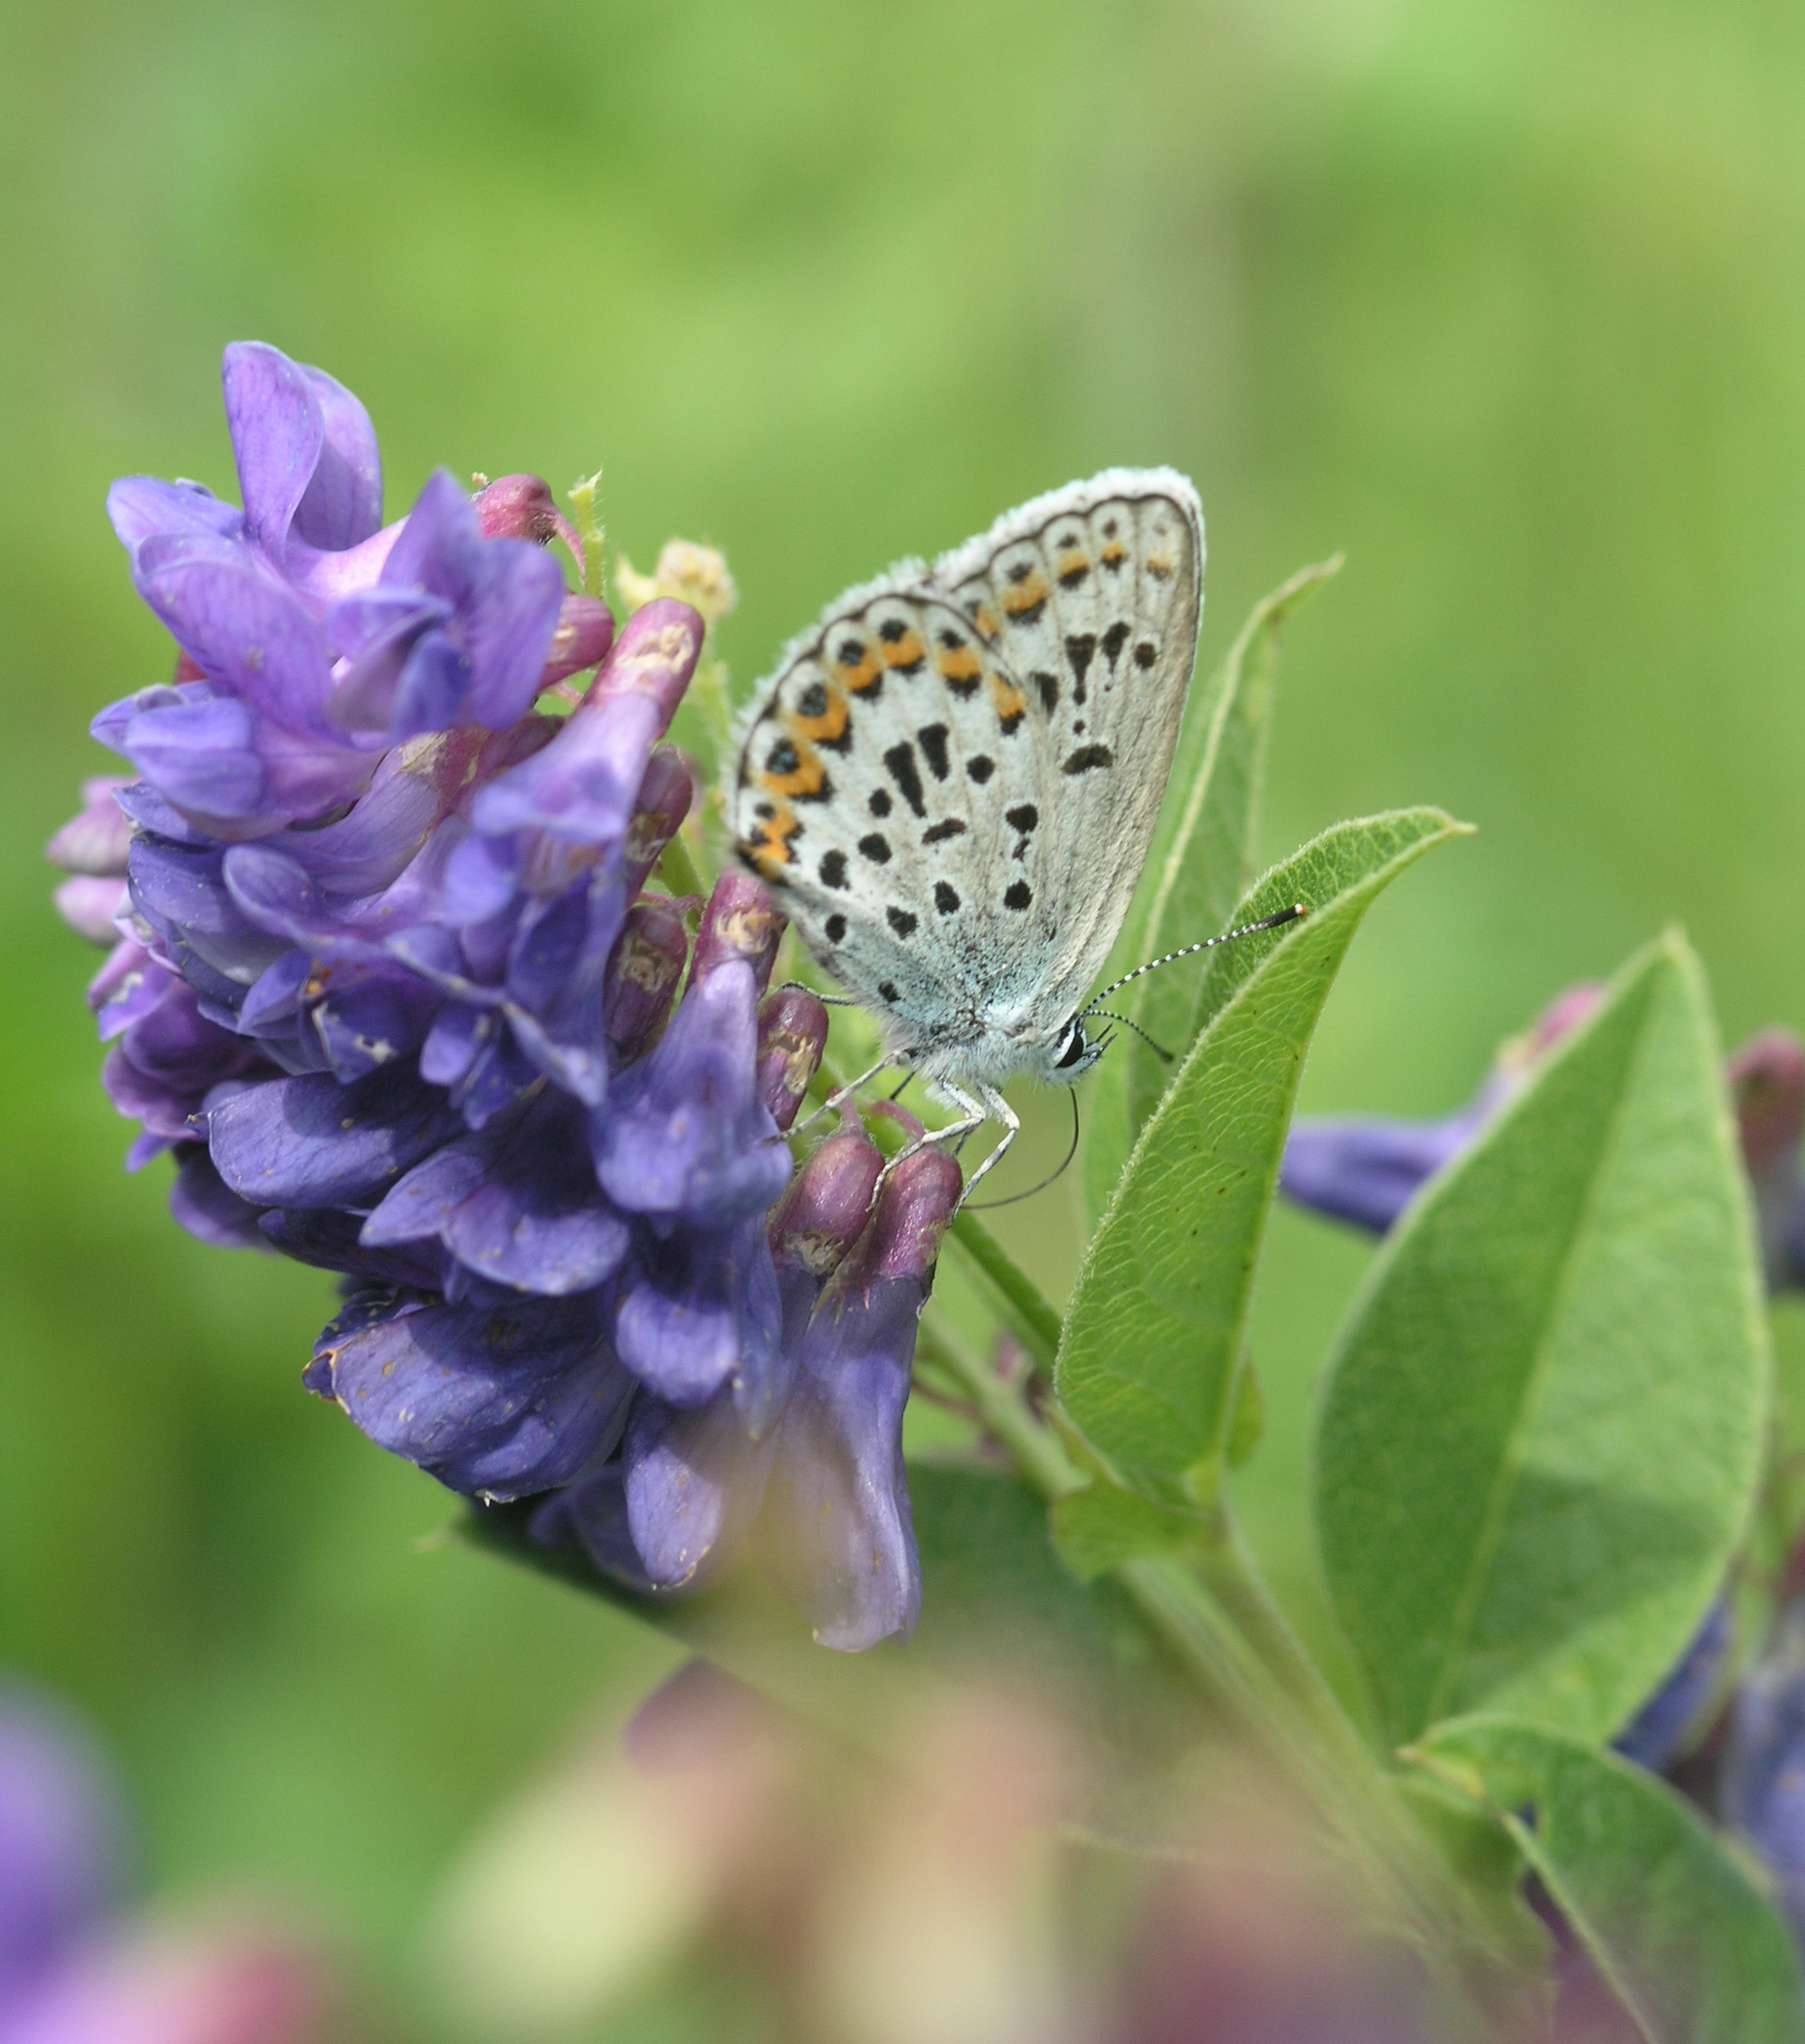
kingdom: Plantae
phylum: Tracheophyta
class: Magnoliopsida
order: Fabales
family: Fabaceae
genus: Vicia
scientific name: Vicia unijuga
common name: Two-leaf vetch
